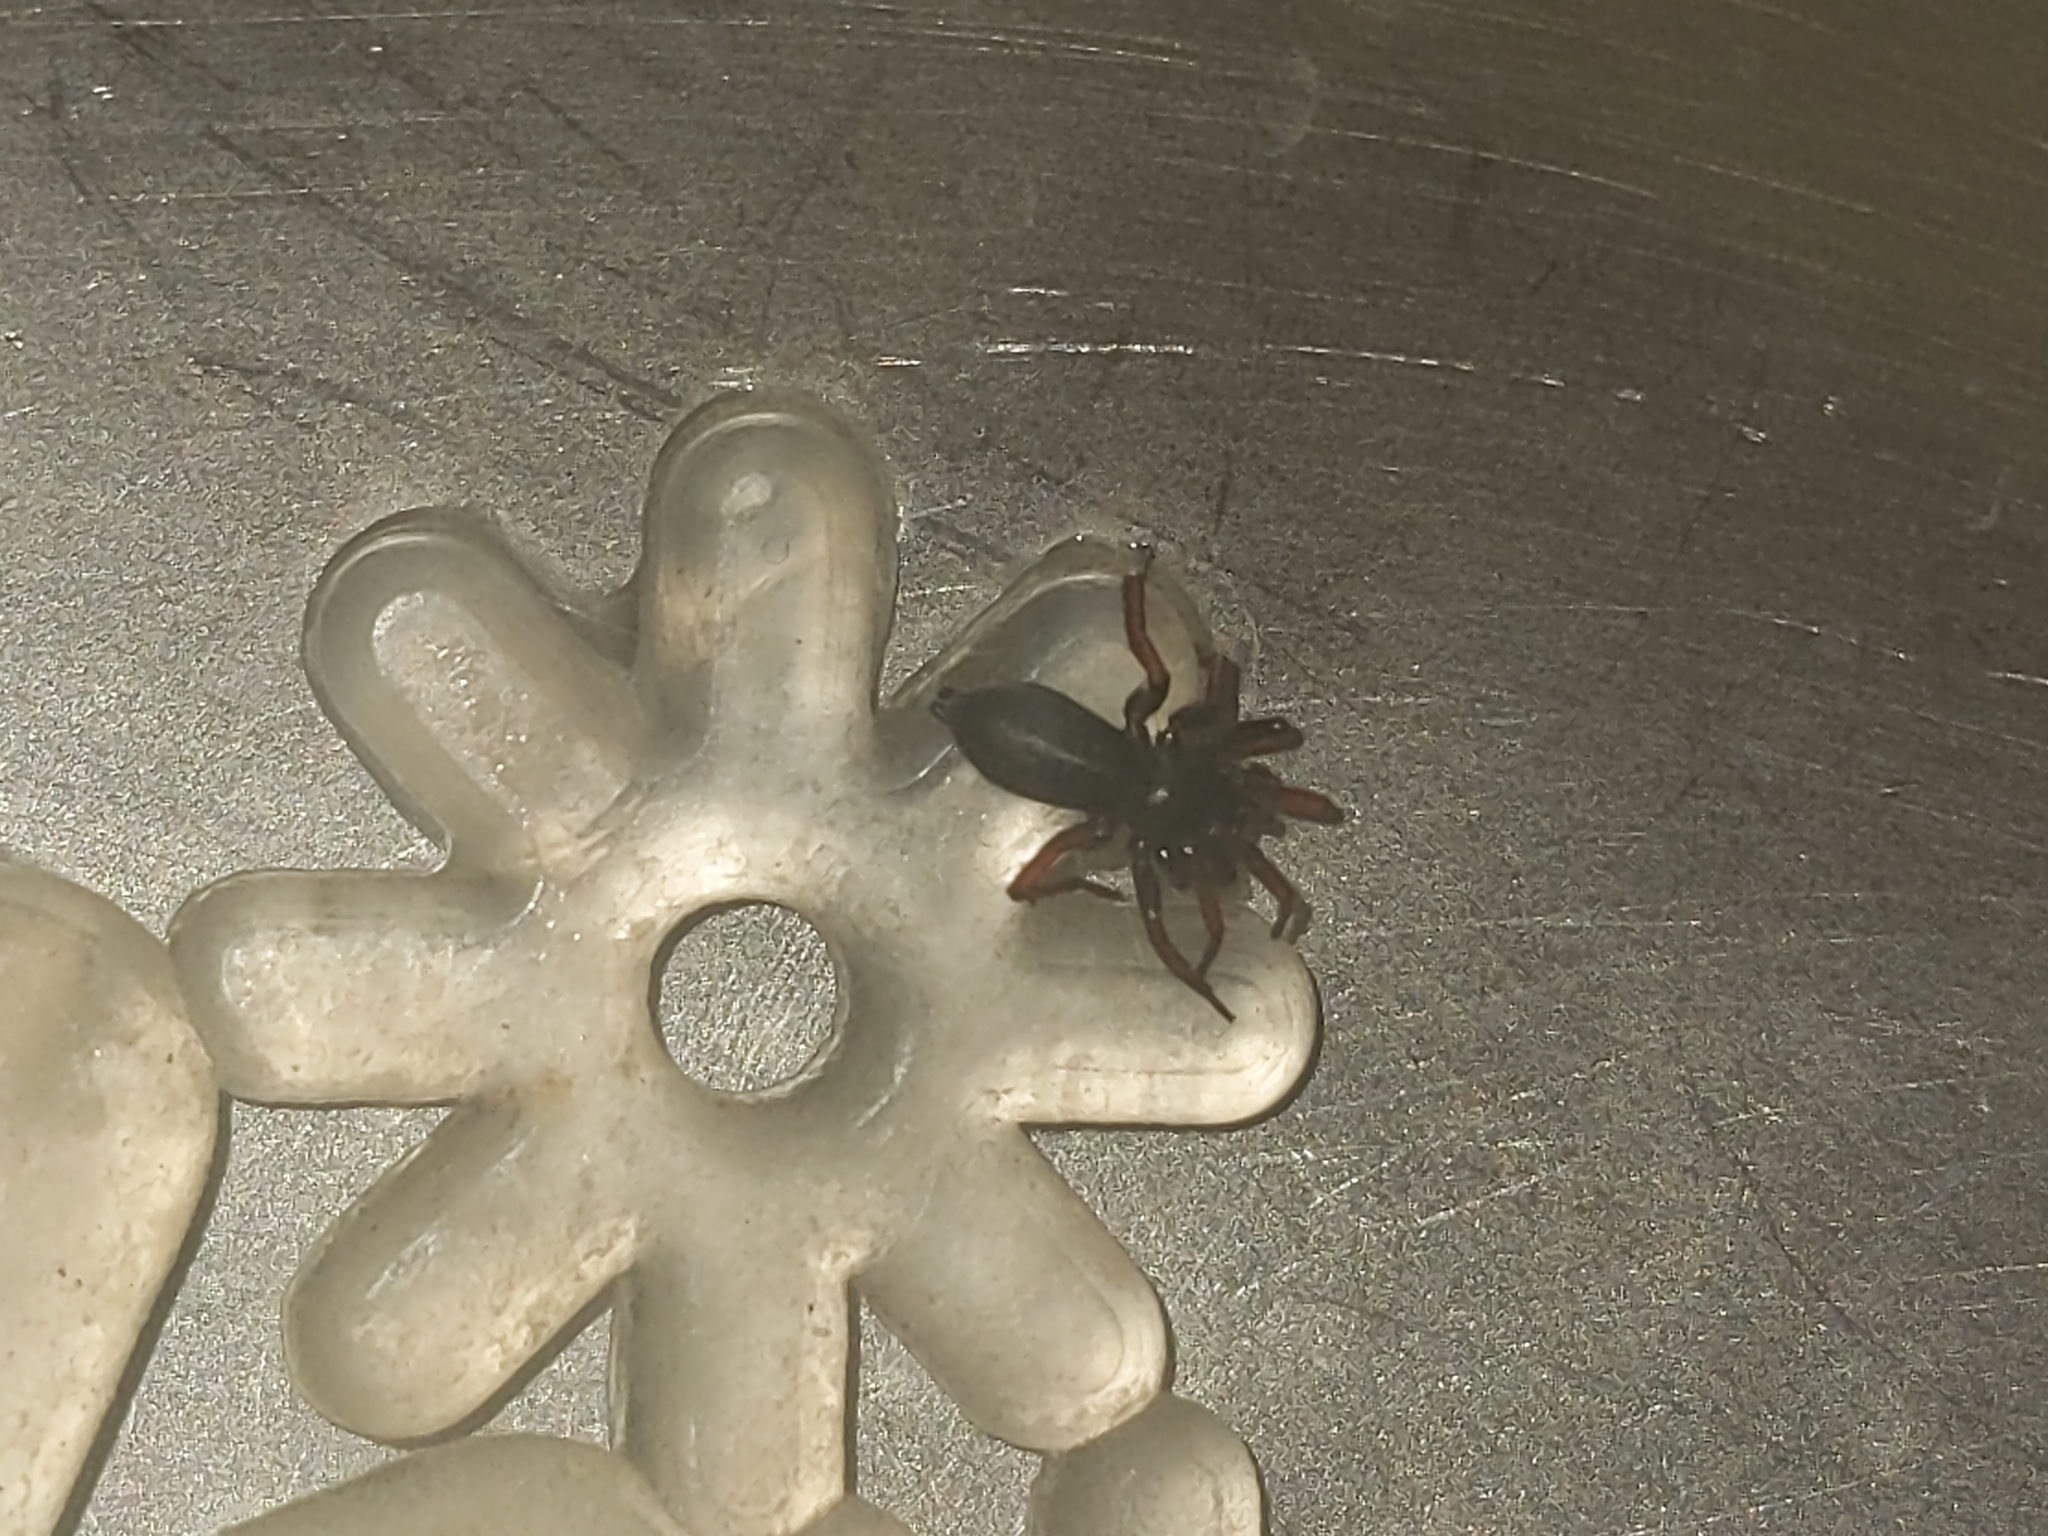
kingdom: Animalia
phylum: Arthropoda
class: Arachnida
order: Araneae
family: Gnaphosidae
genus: Trachyzelotes
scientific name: Trachyzelotes pedestris
